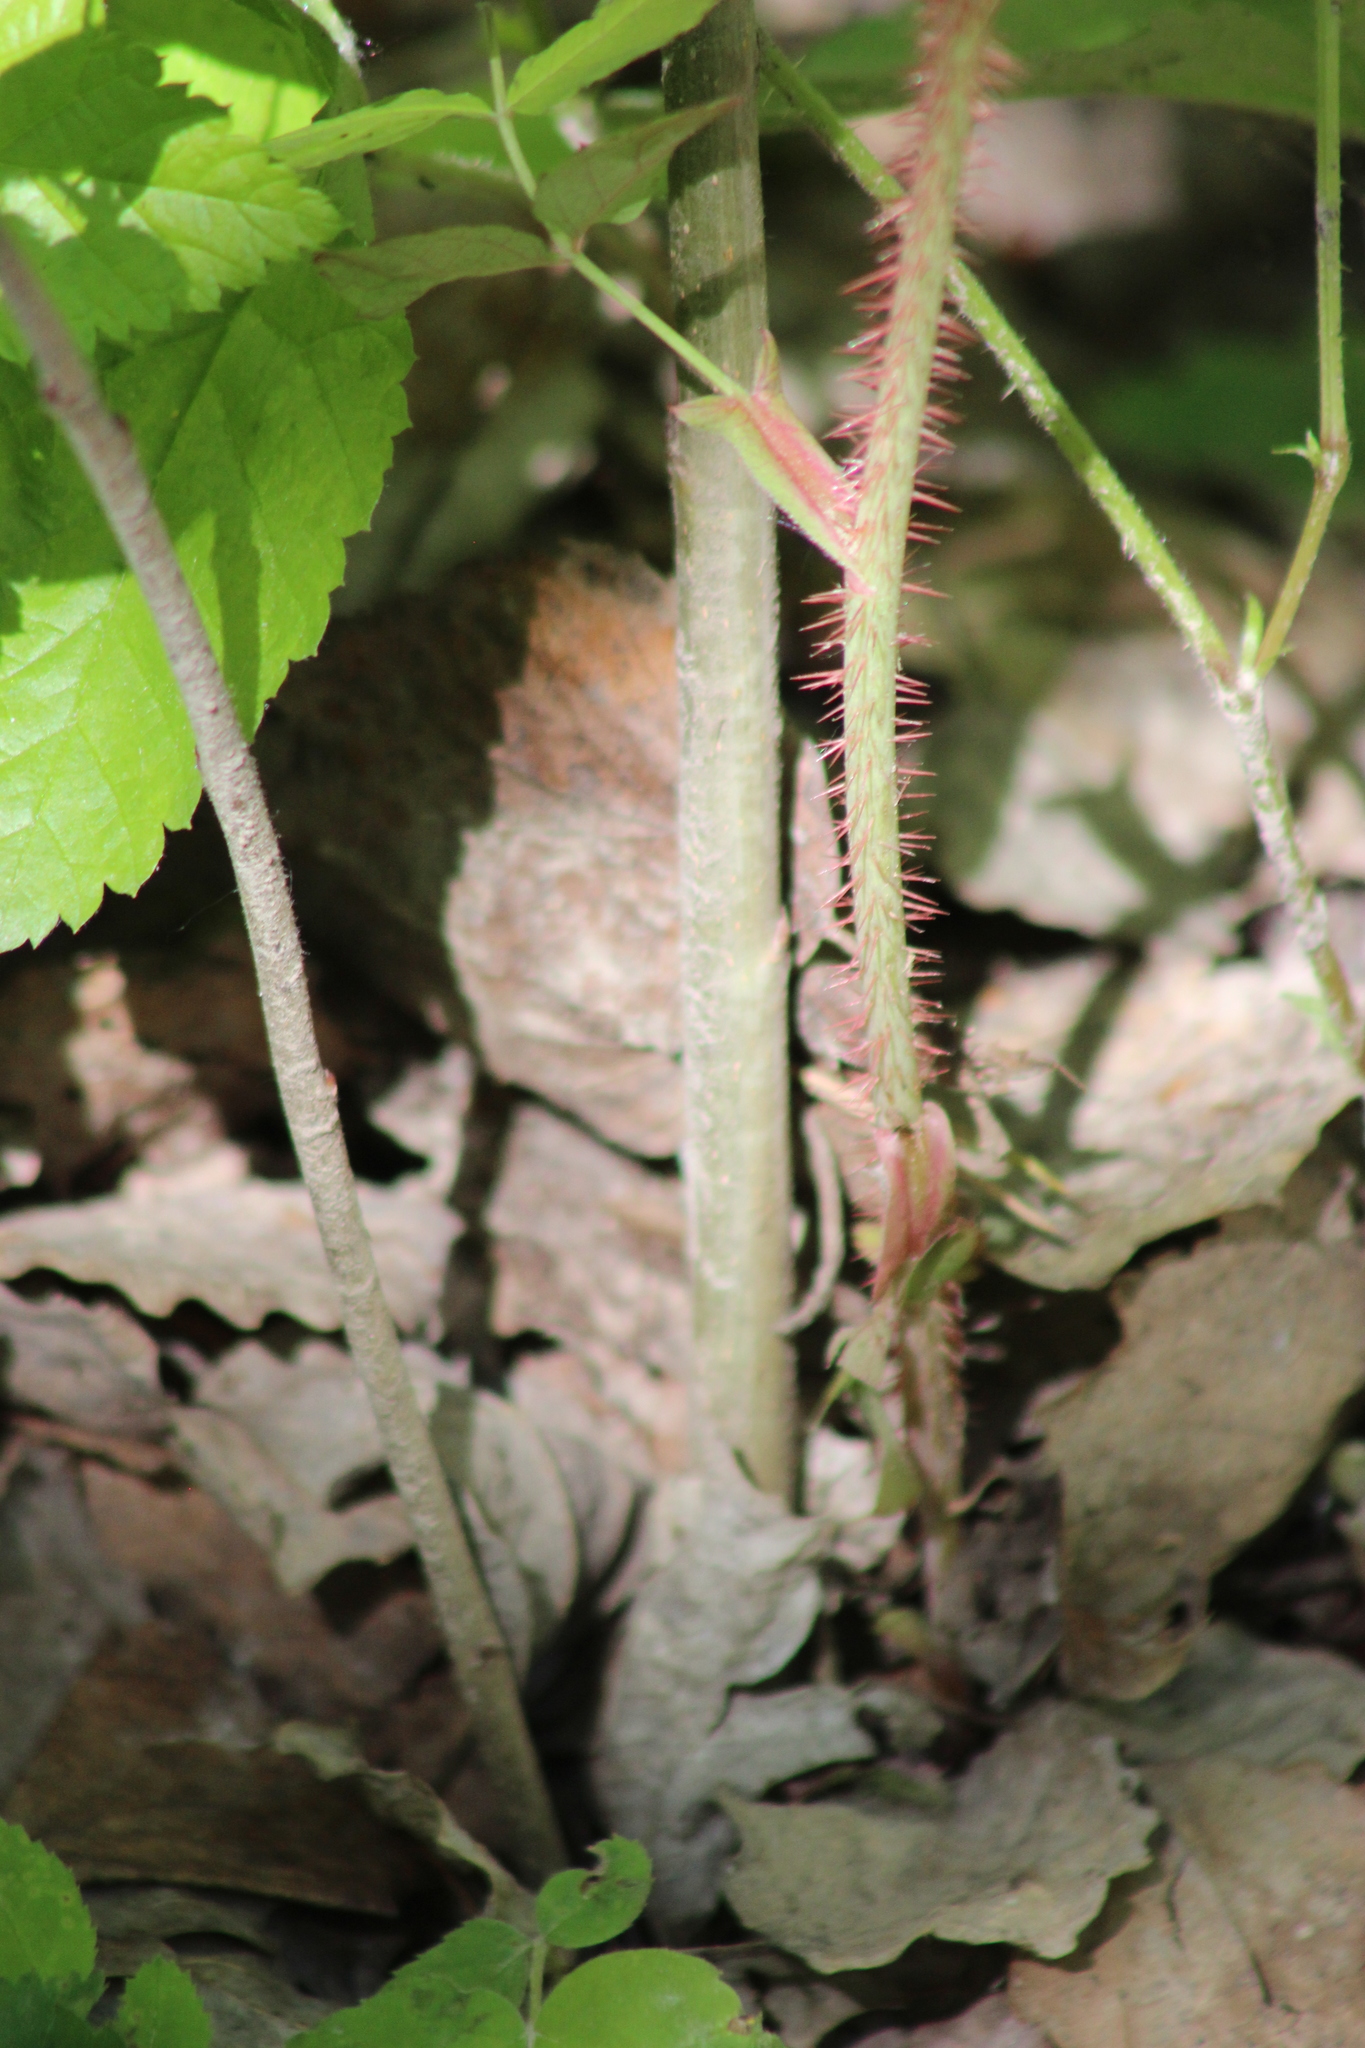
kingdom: Plantae
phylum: Tracheophyta
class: Magnoliopsida
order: Rosales
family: Rosaceae
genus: Rosa
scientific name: Rosa acicularis
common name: Prickly rose
